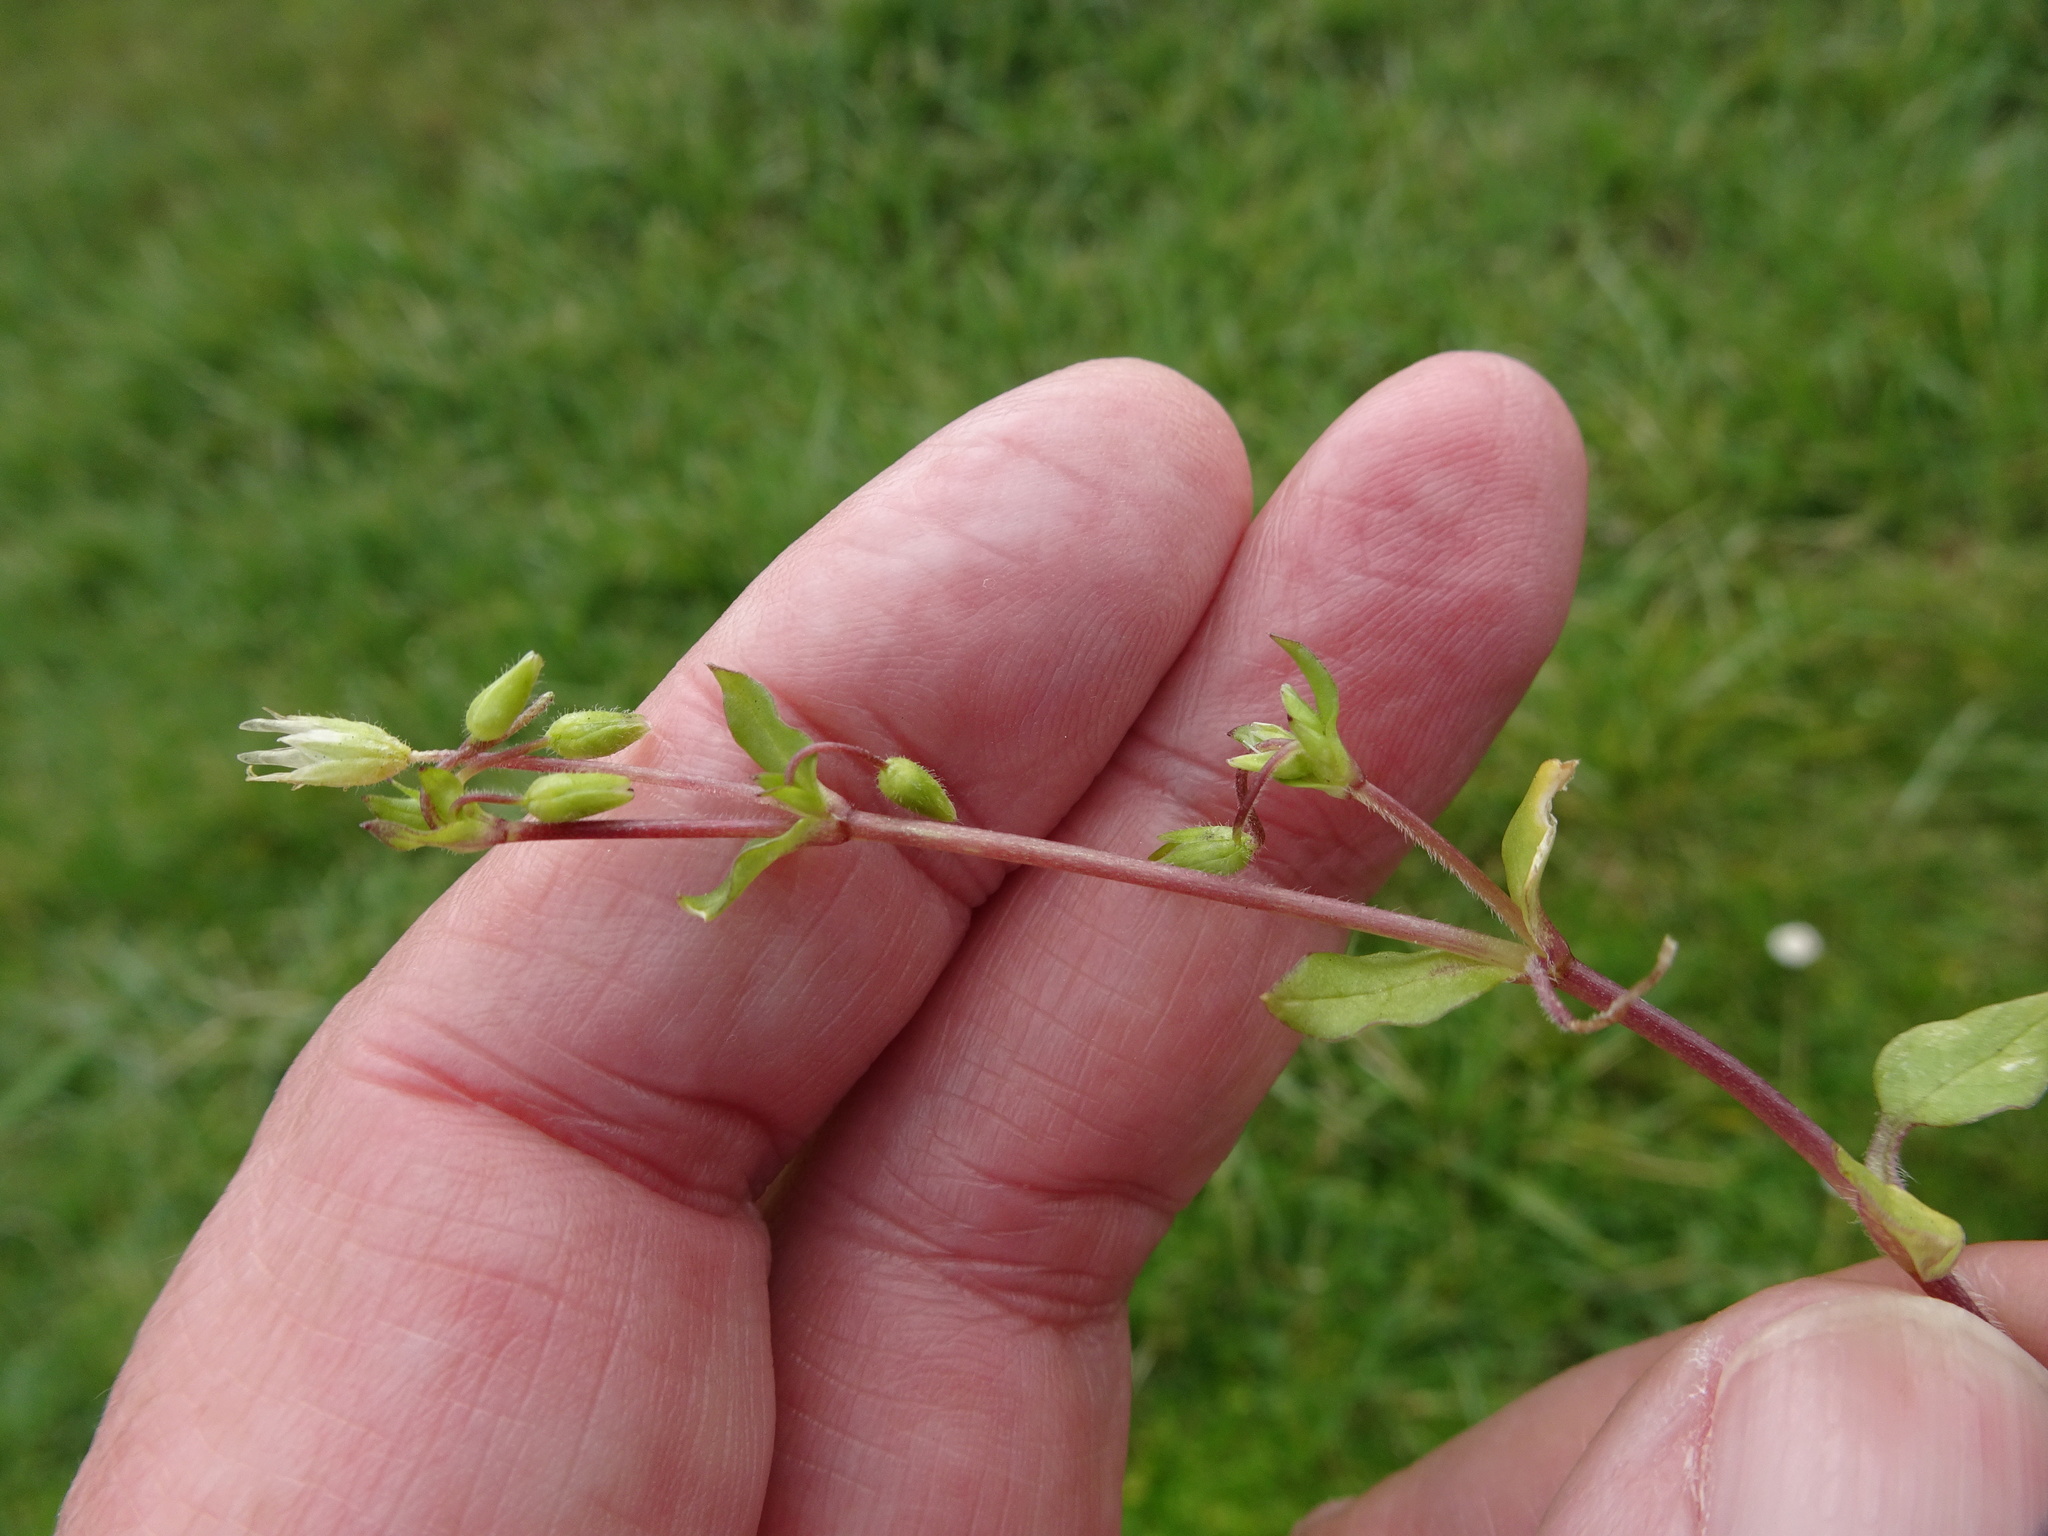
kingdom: Plantae
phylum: Tracheophyta
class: Magnoliopsida
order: Caryophyllales
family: Caryophyllaceae
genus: Stellaria
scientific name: Stellaria media
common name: Common chickweed
